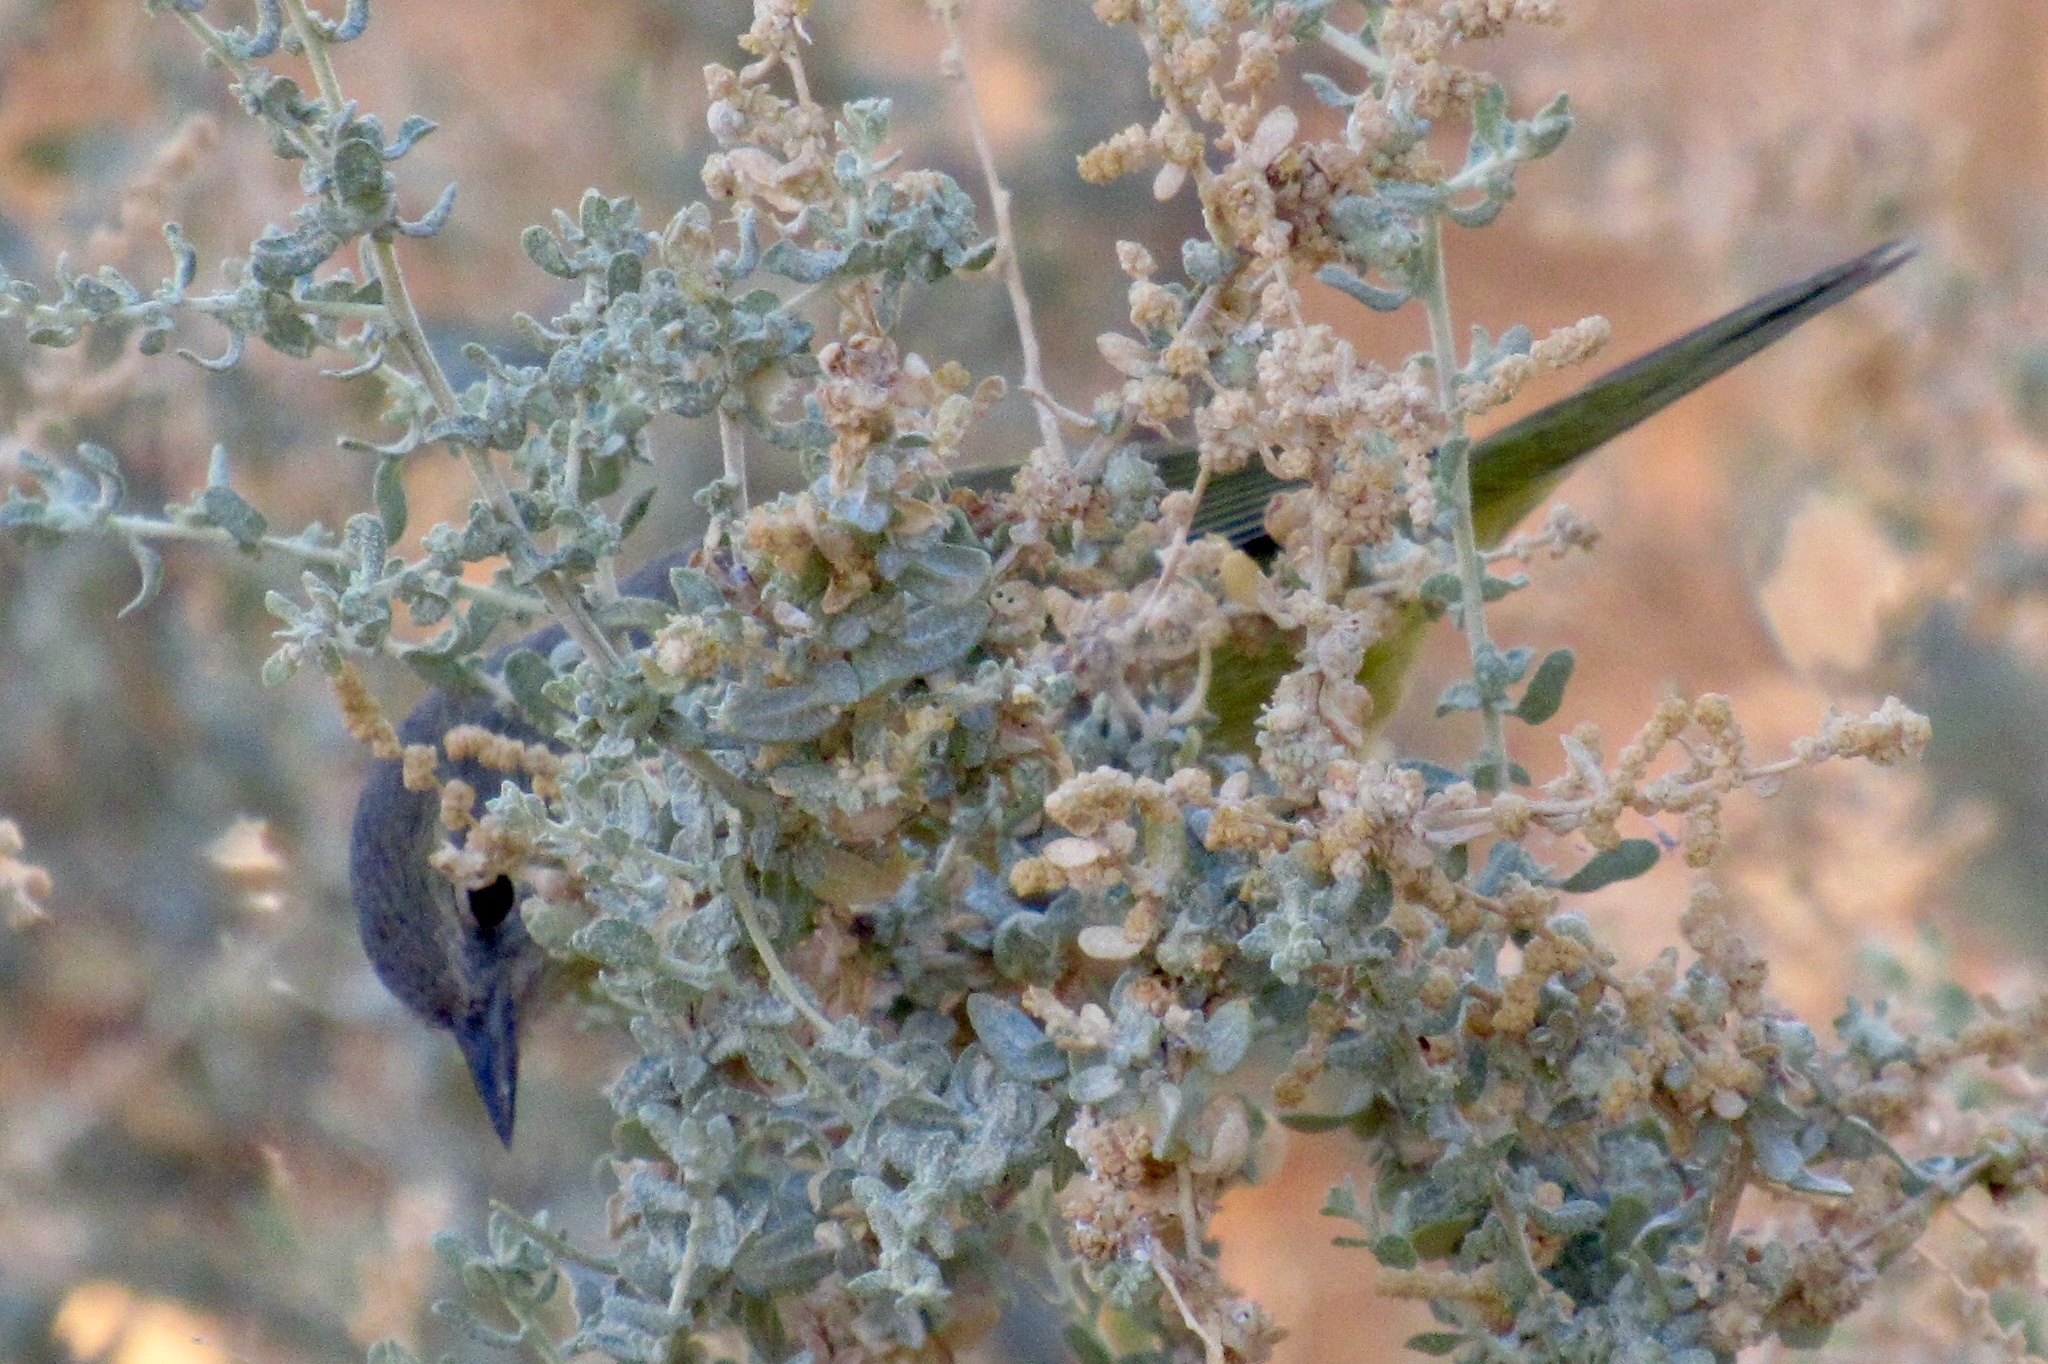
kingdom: Animalia
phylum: Chordata
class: Aves
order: Passeriformes
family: Parulidae
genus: Leiothlypis
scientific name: Leiothlypis celata
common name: Orange-crowned warbler
